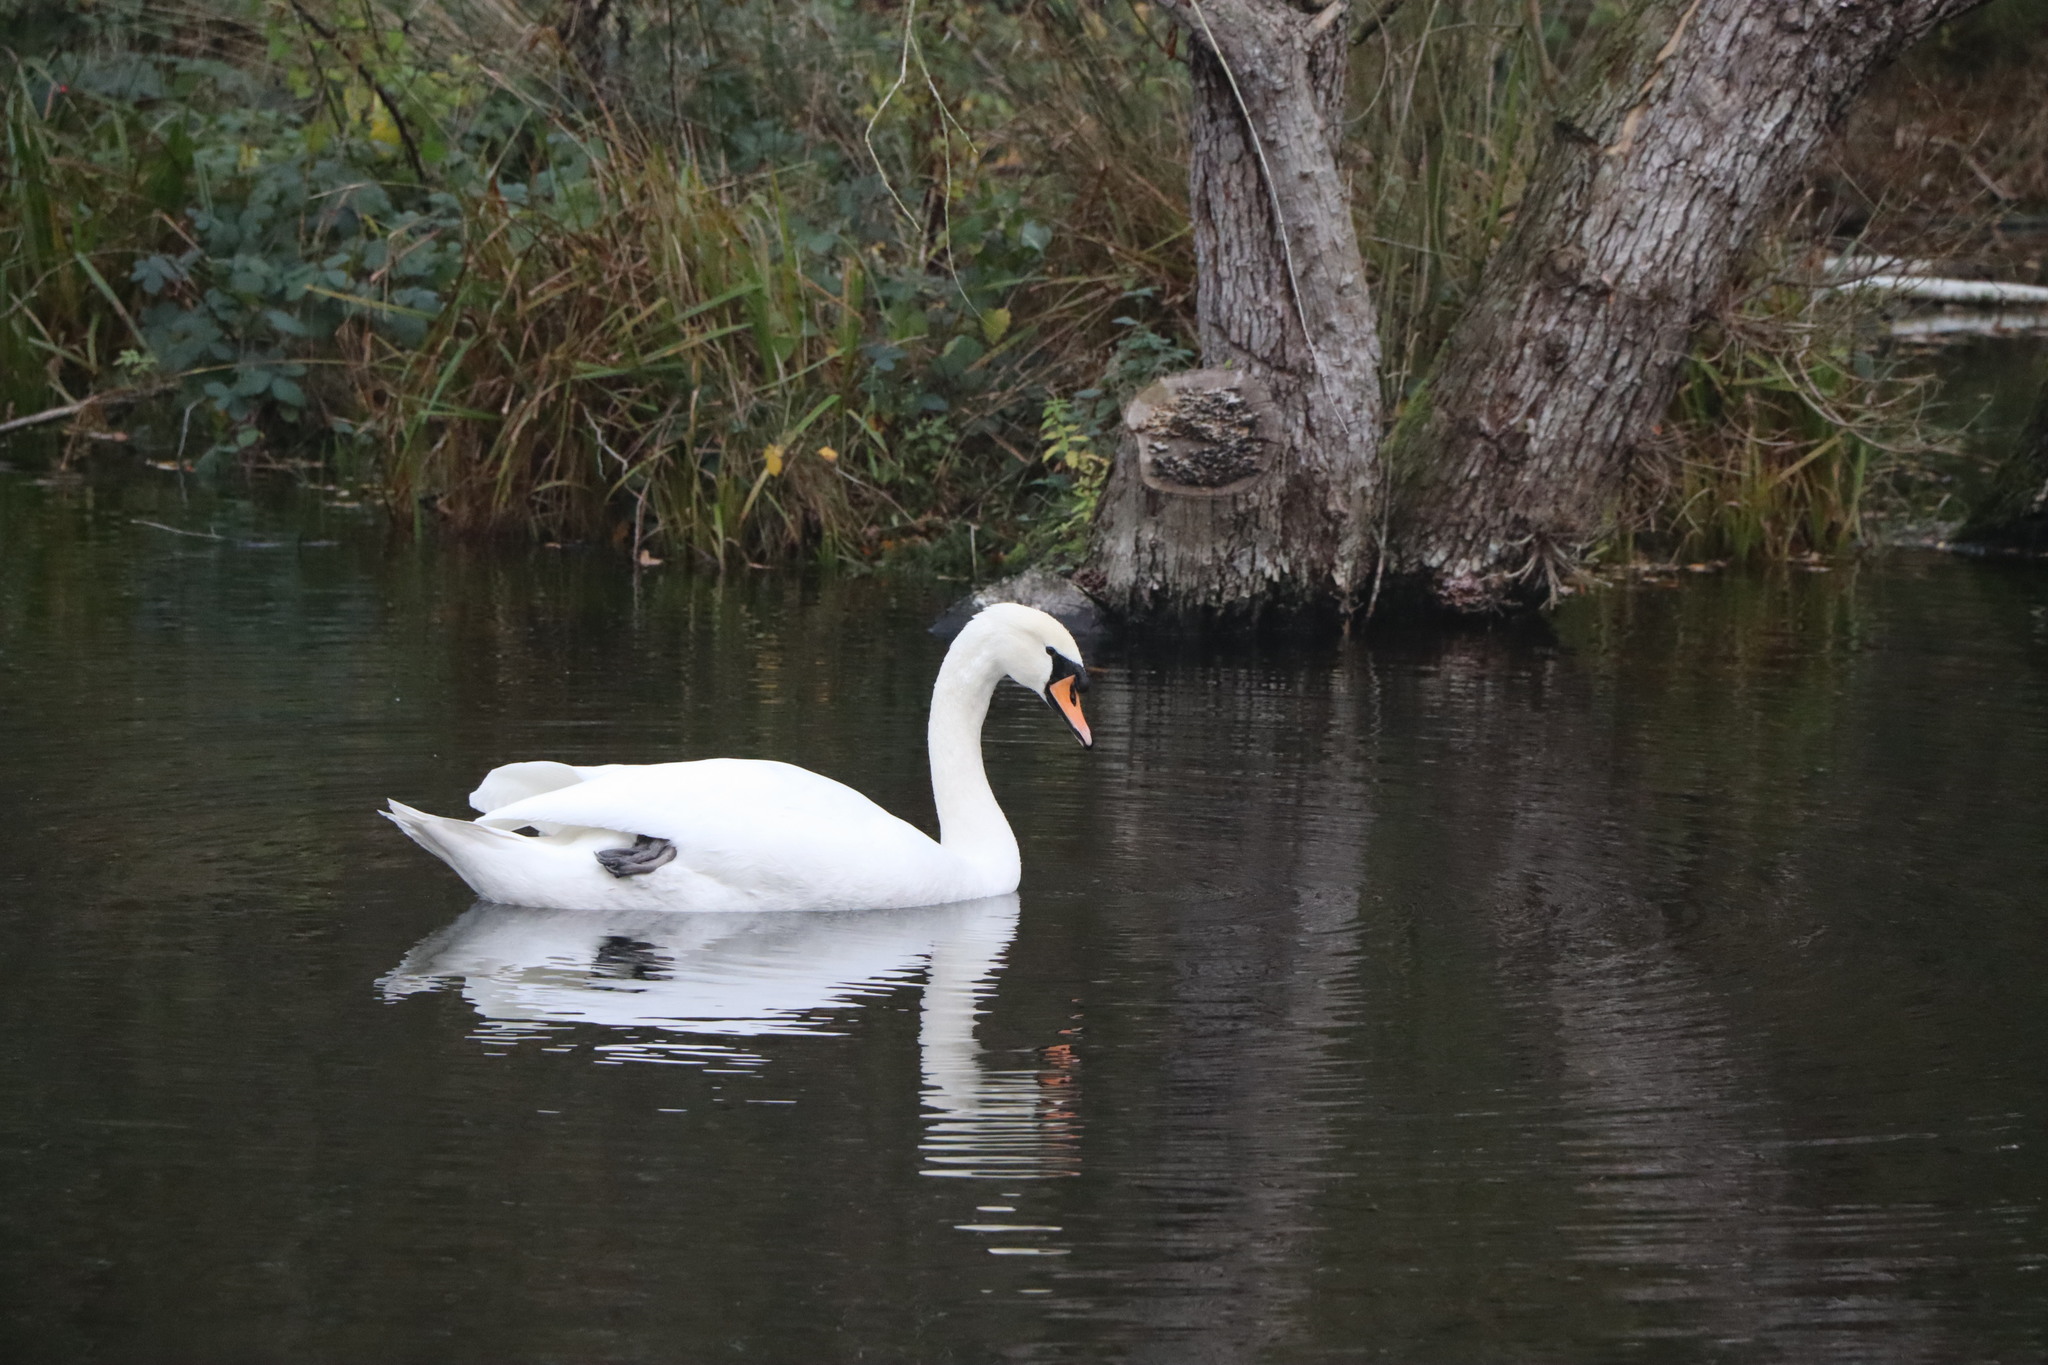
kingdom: Animalia
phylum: Chordata
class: Aves
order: Anseriformes
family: Anatidae
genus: Cygnus
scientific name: Cygnus olor
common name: Mute swan
